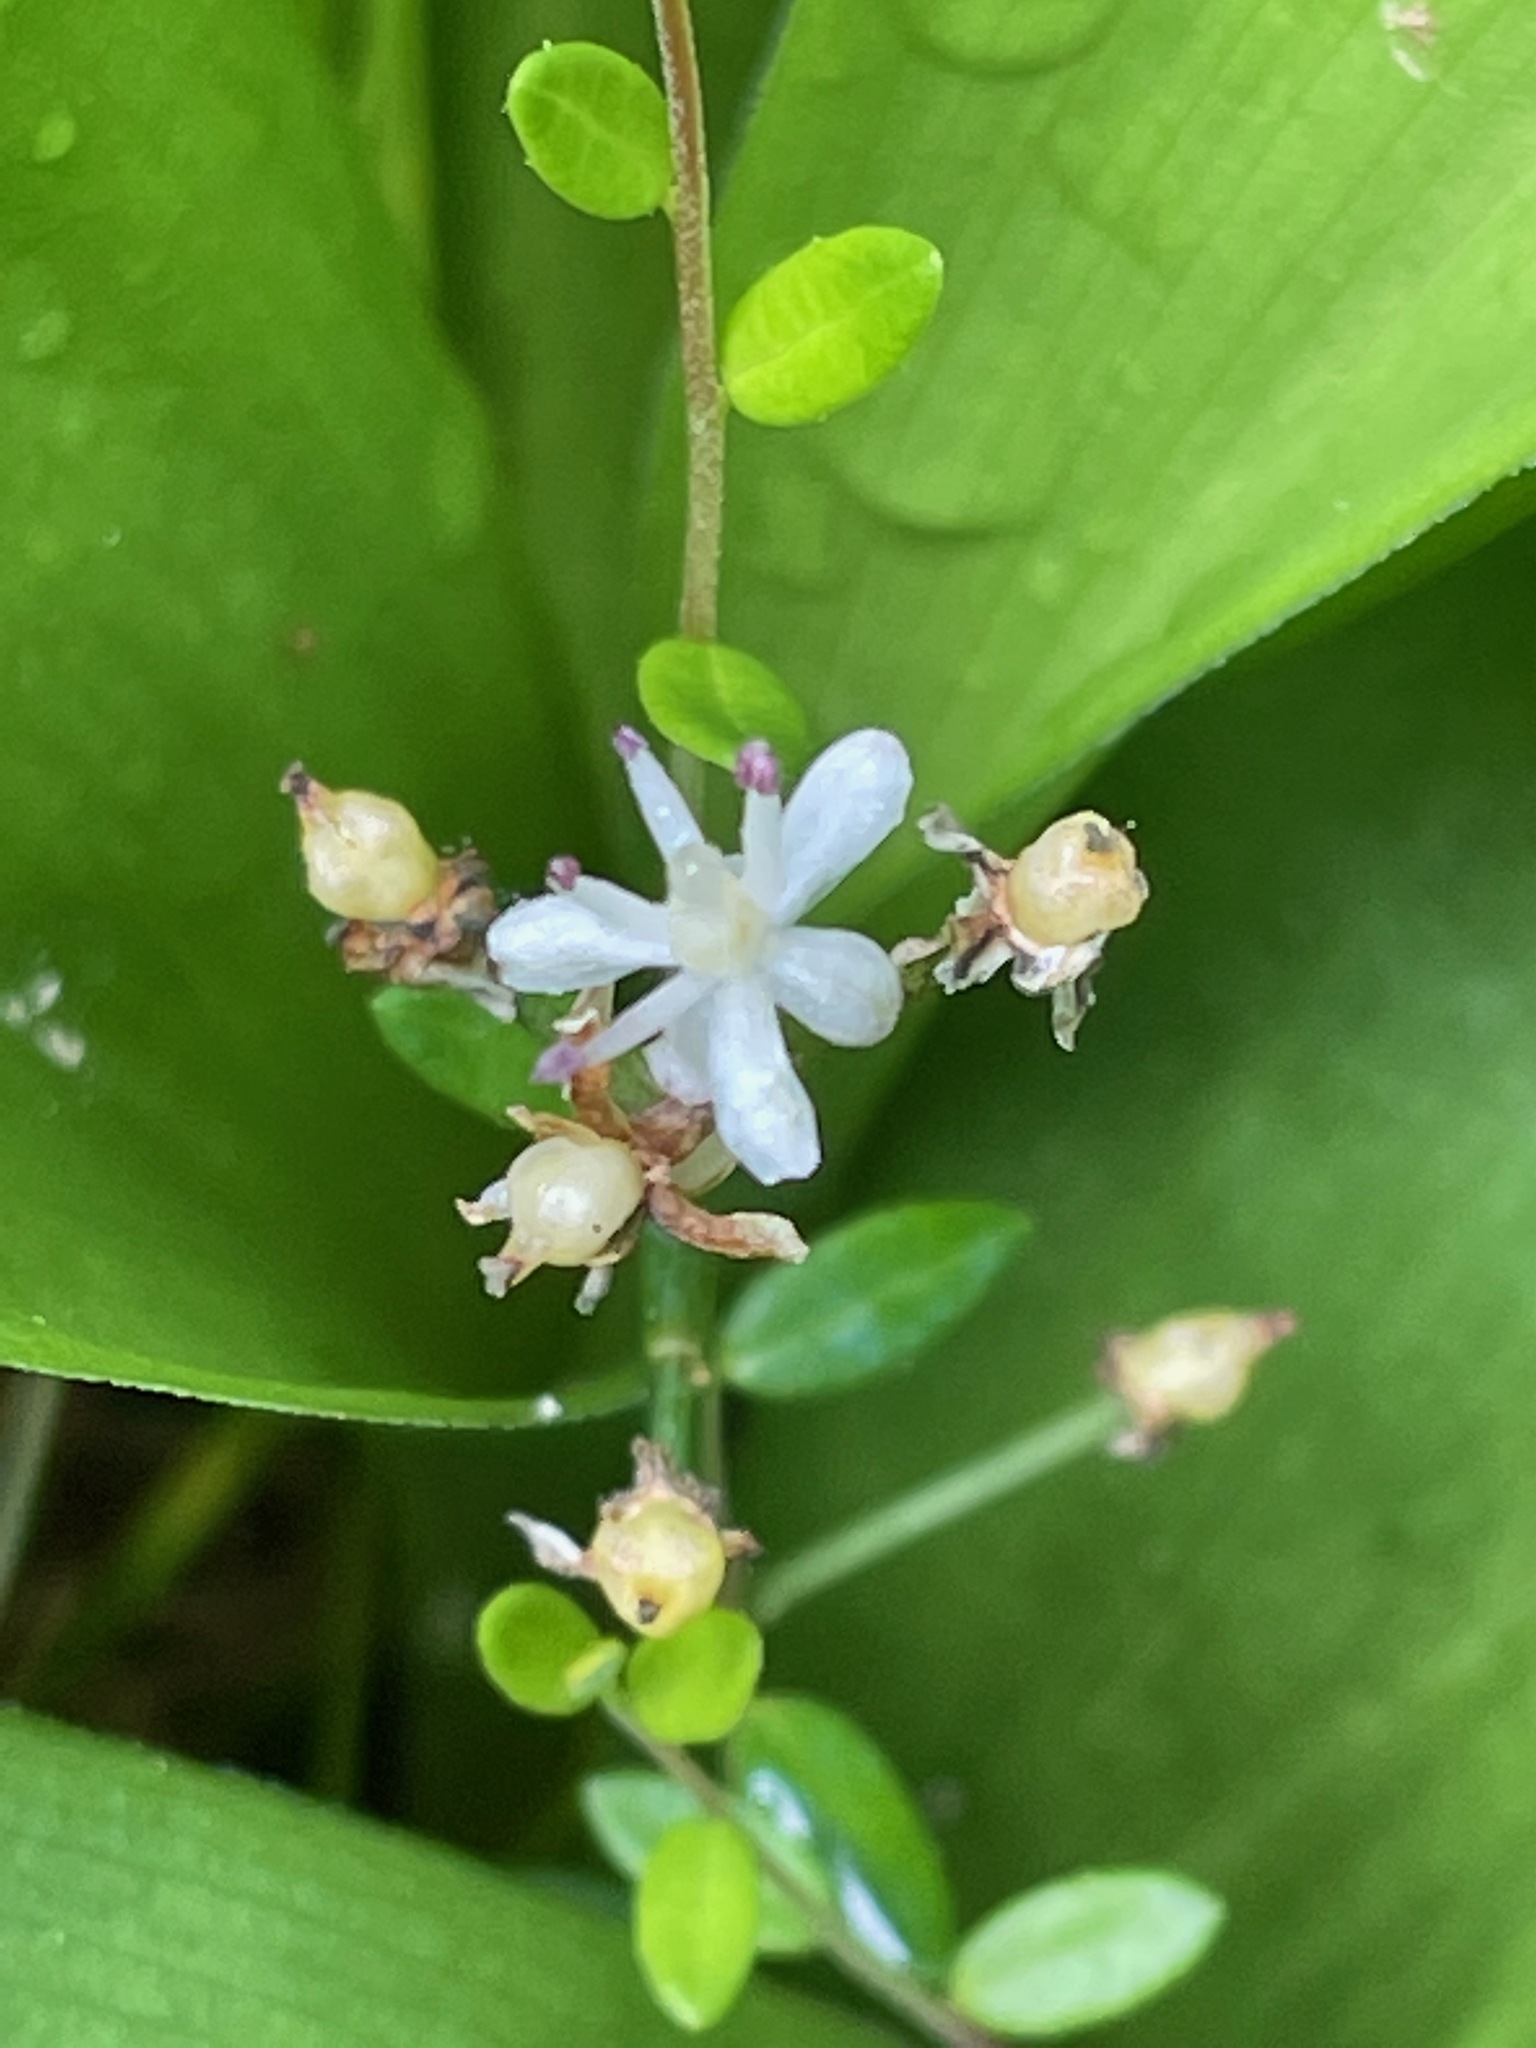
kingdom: Plantae
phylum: Tracheophyta
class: Liliopsida
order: Asparagales
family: Asparagaceae
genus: Maianthemum
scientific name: Maianthemum trifolium
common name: Swamp false solomon's seal
